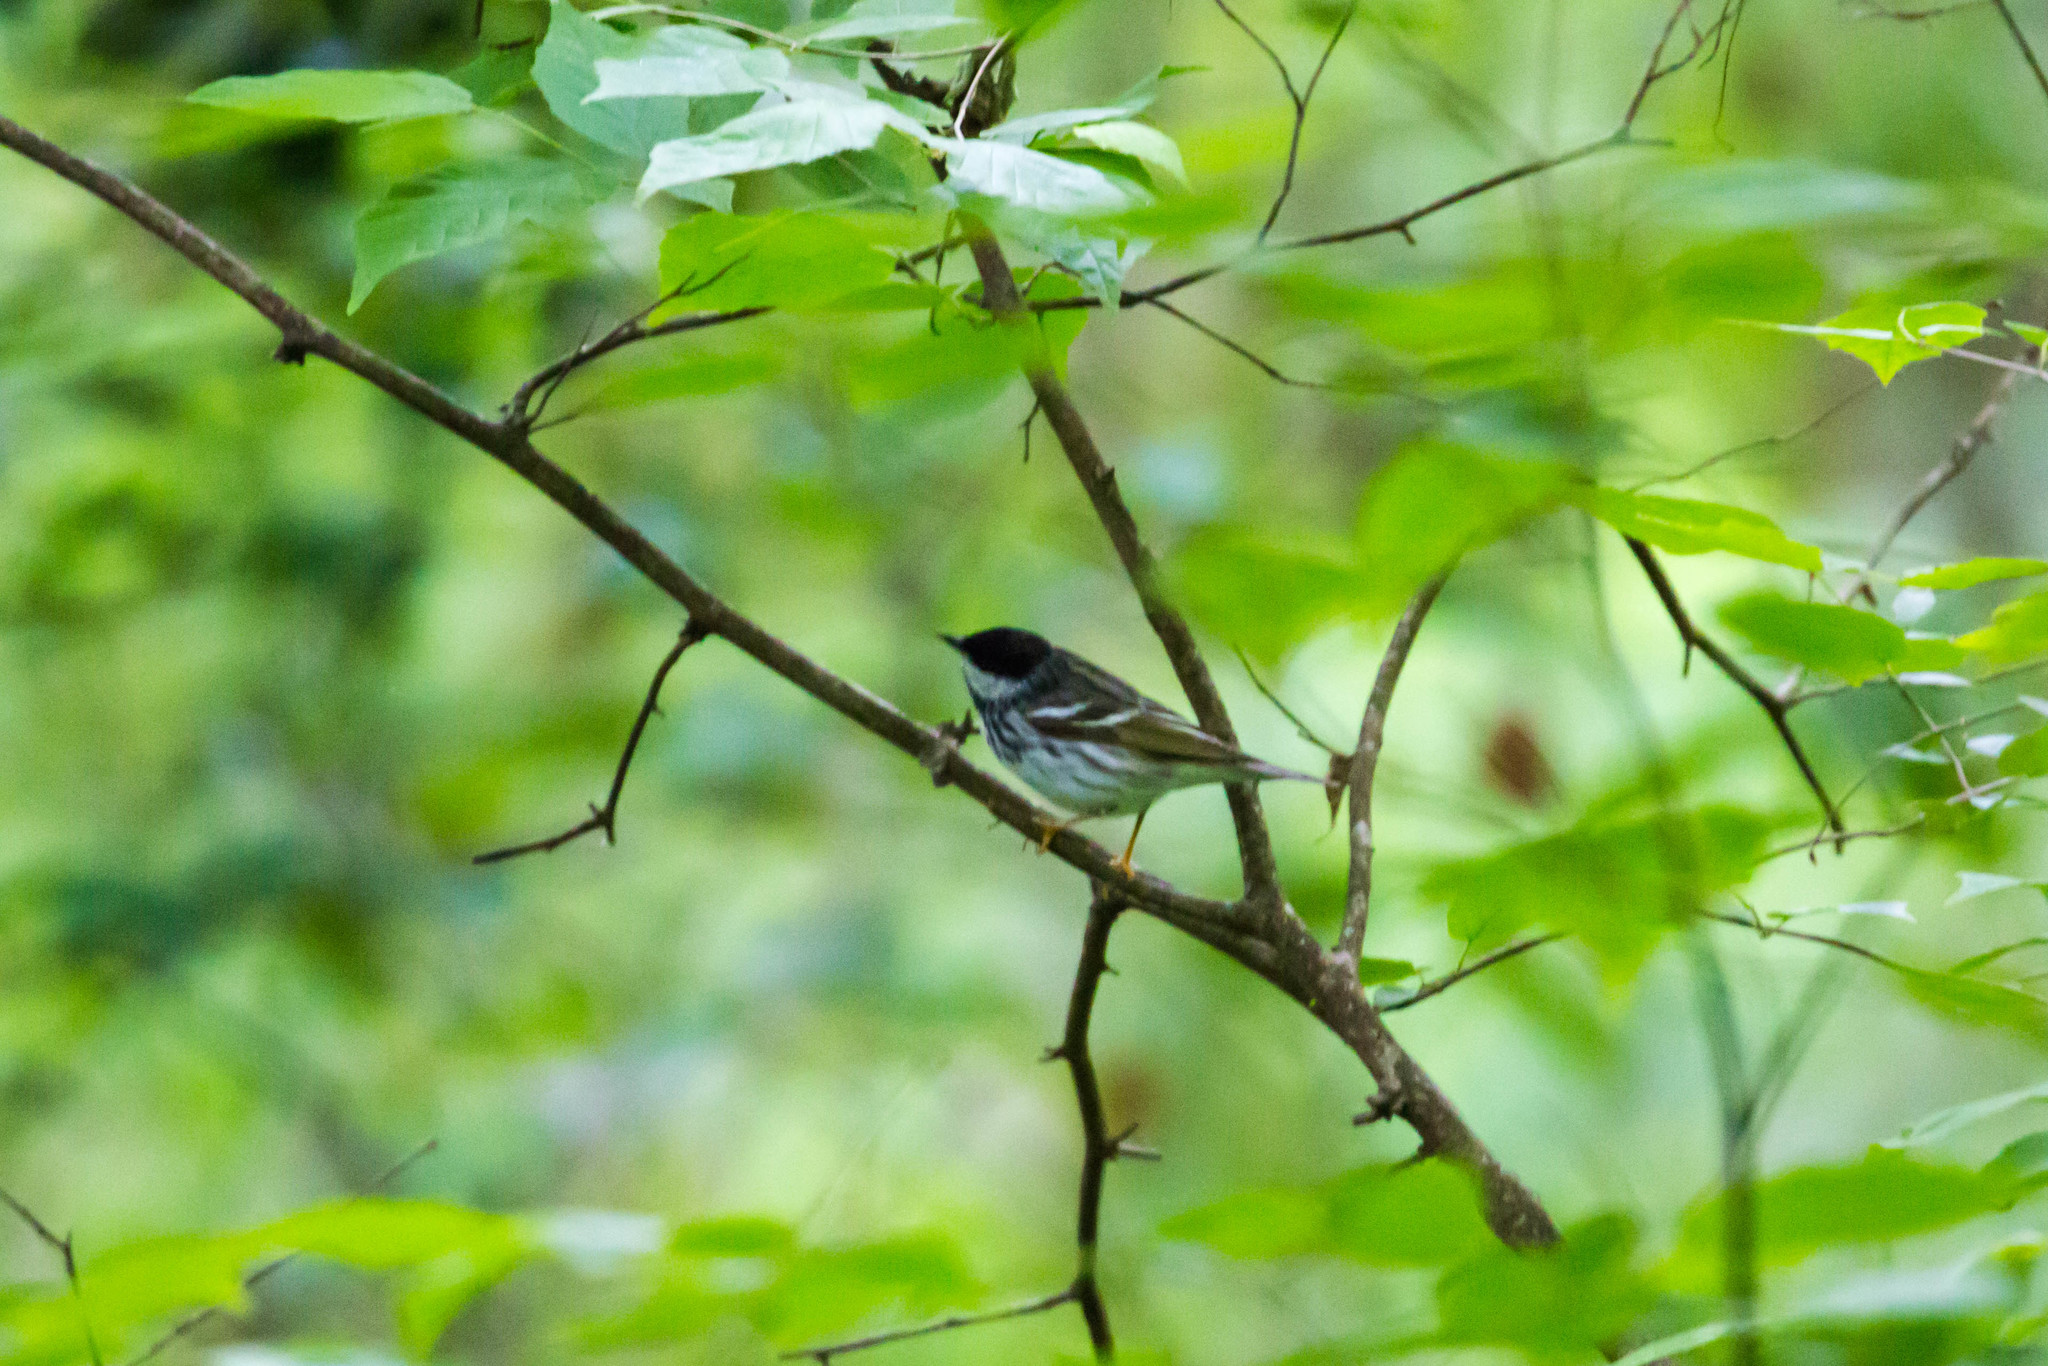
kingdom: Animalia
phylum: Chordata
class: Aves
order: Passeriformes
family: Parulidae
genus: Setophaga
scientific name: Setophaga striata
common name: Blackpoll warbler
